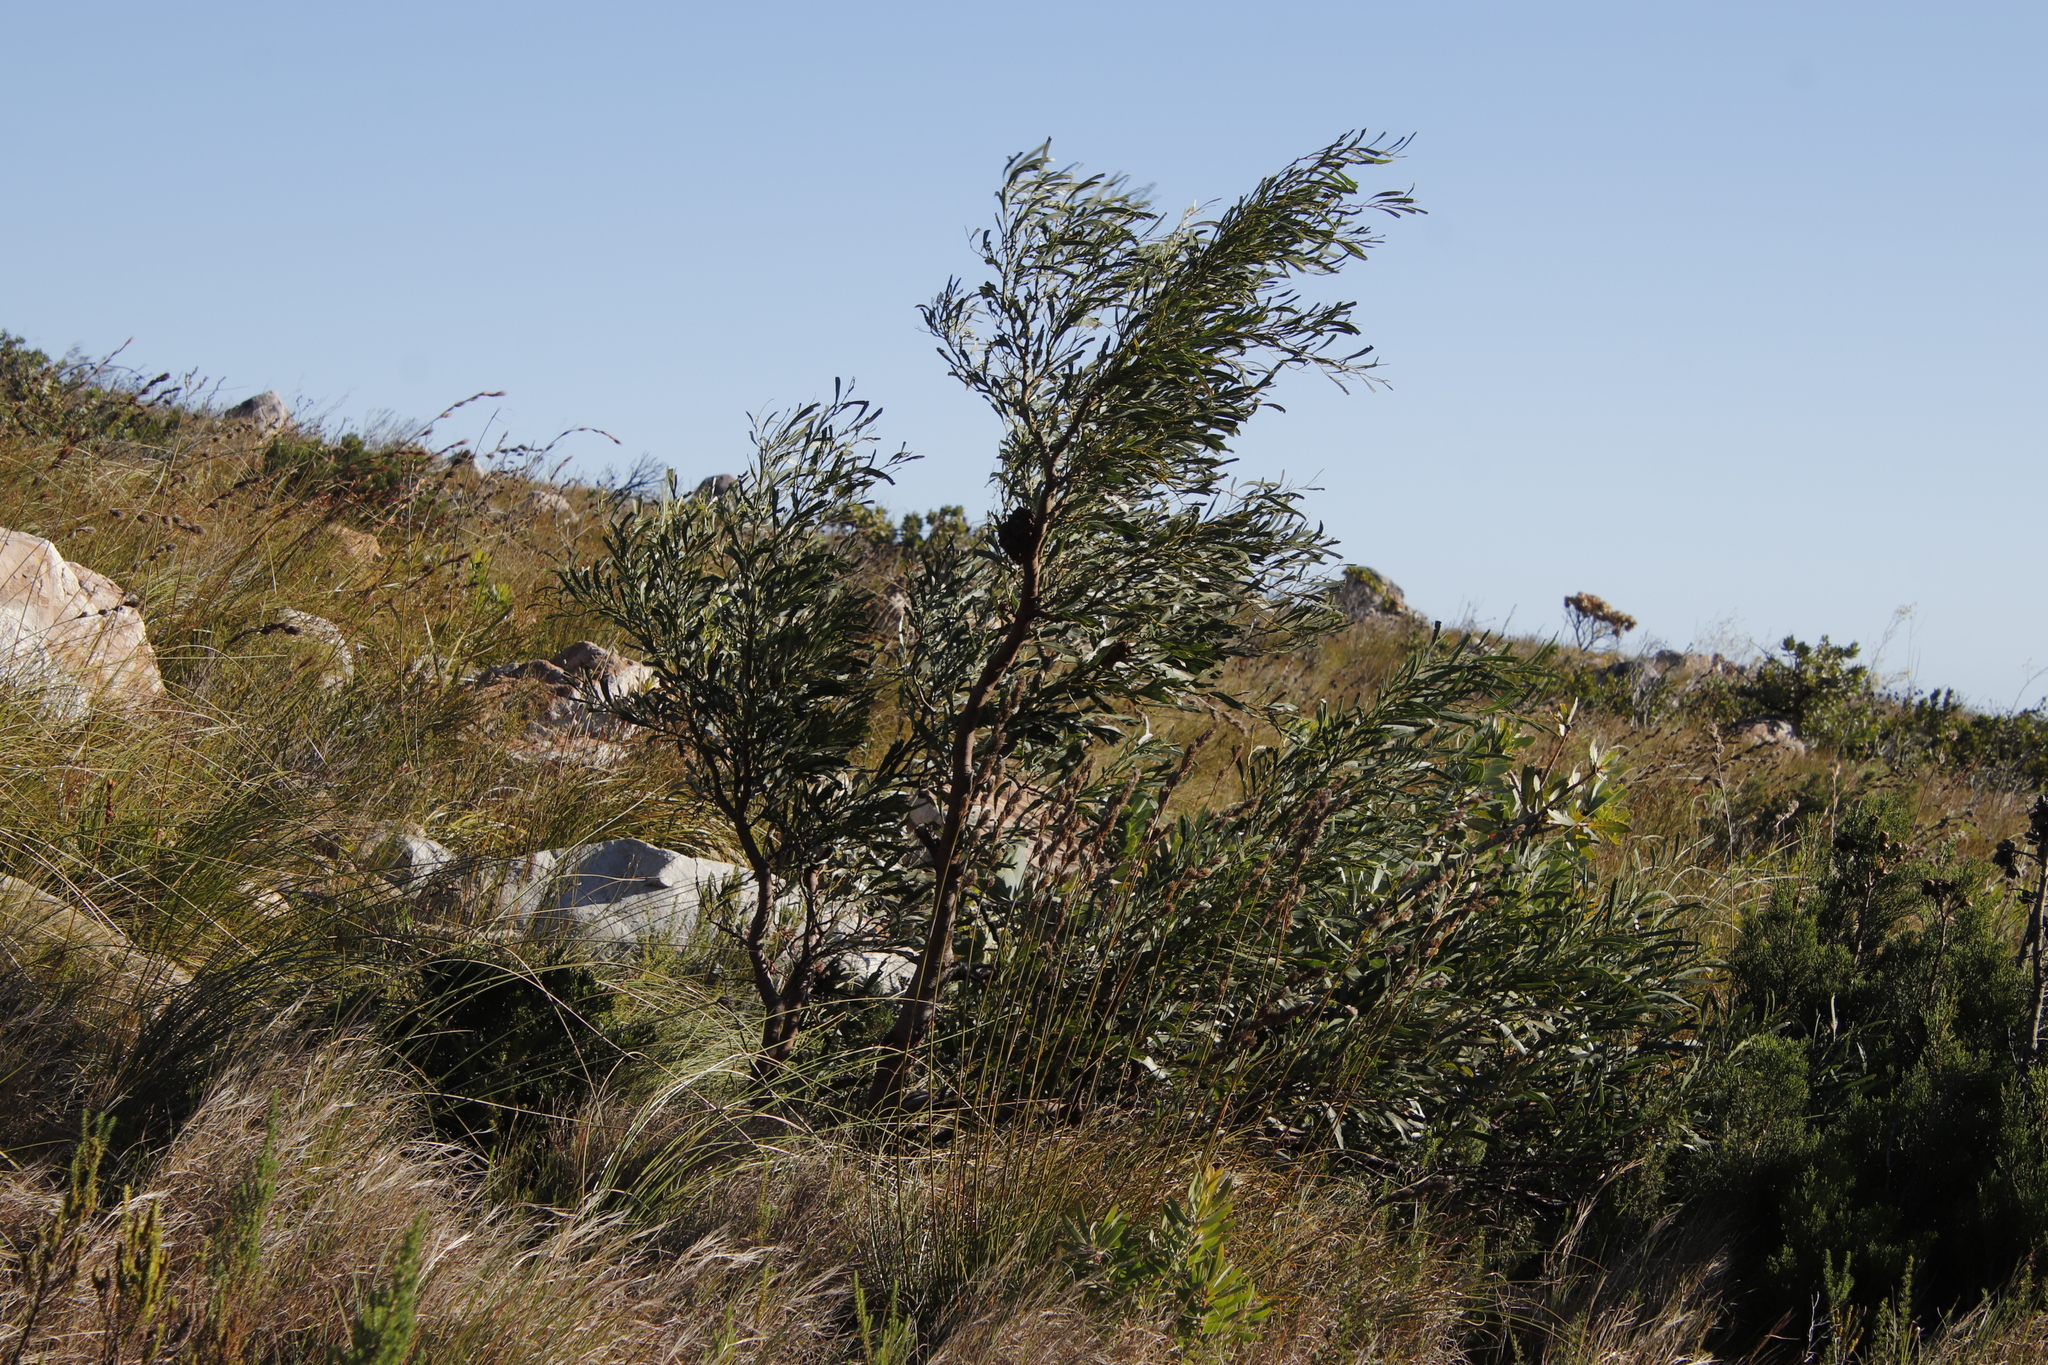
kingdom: Plantae
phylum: Tracheophyta
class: Magnoliopsida
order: Fabales
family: Fabaceae
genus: Acacia
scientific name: Acacia saligna
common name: Orange wattle
